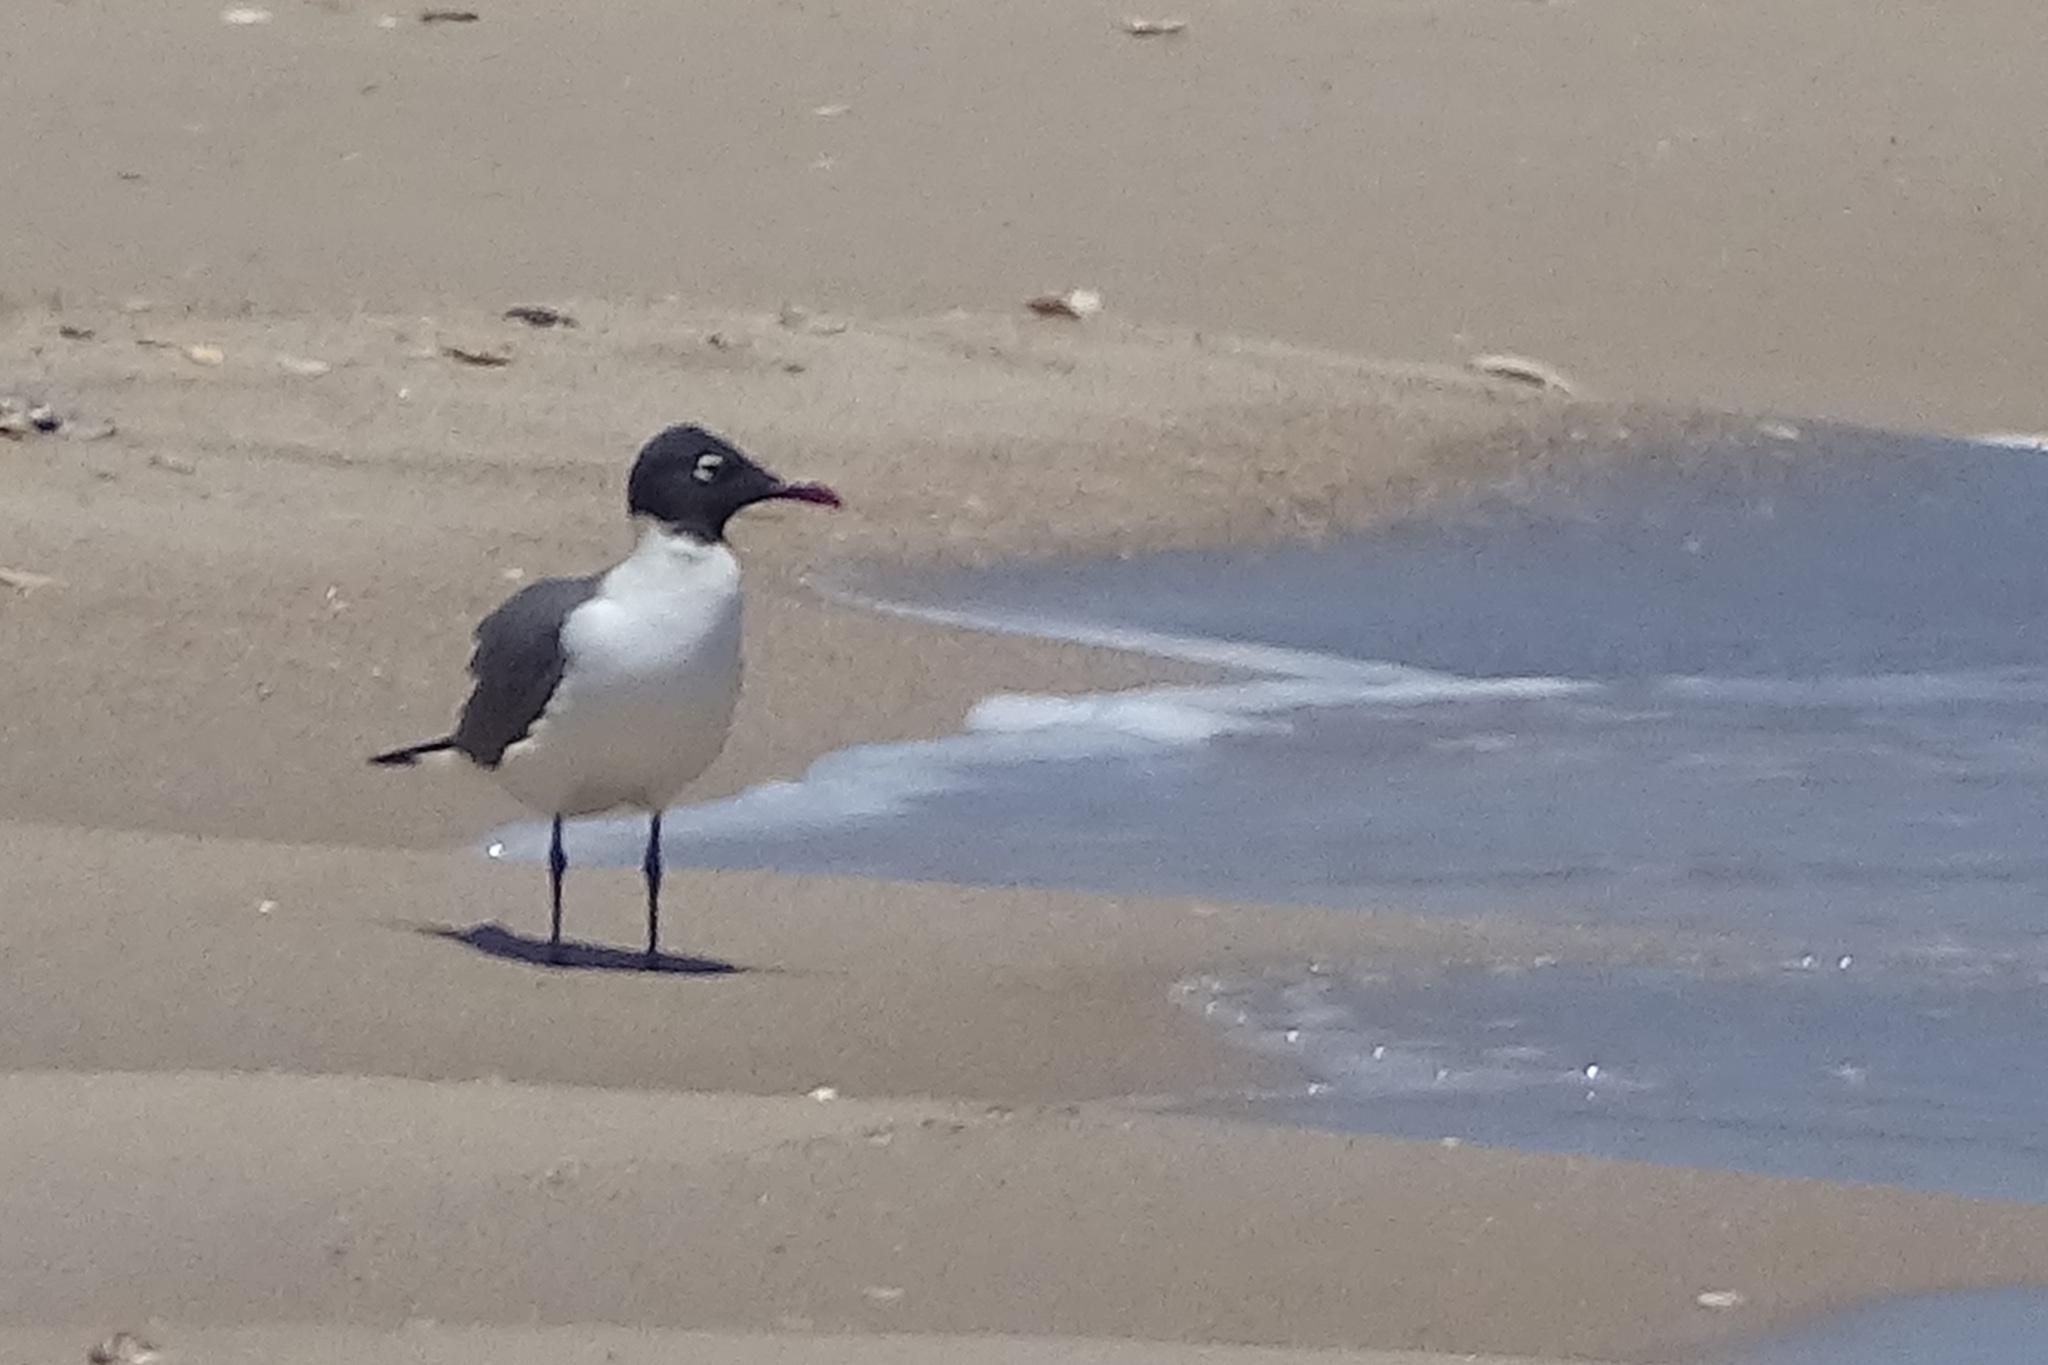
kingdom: Animalia
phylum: Chordata
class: Aves
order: Charadriiformes
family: Laridae
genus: Leucophaeus
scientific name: Leucophaeus atricilla
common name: Laughing gull
